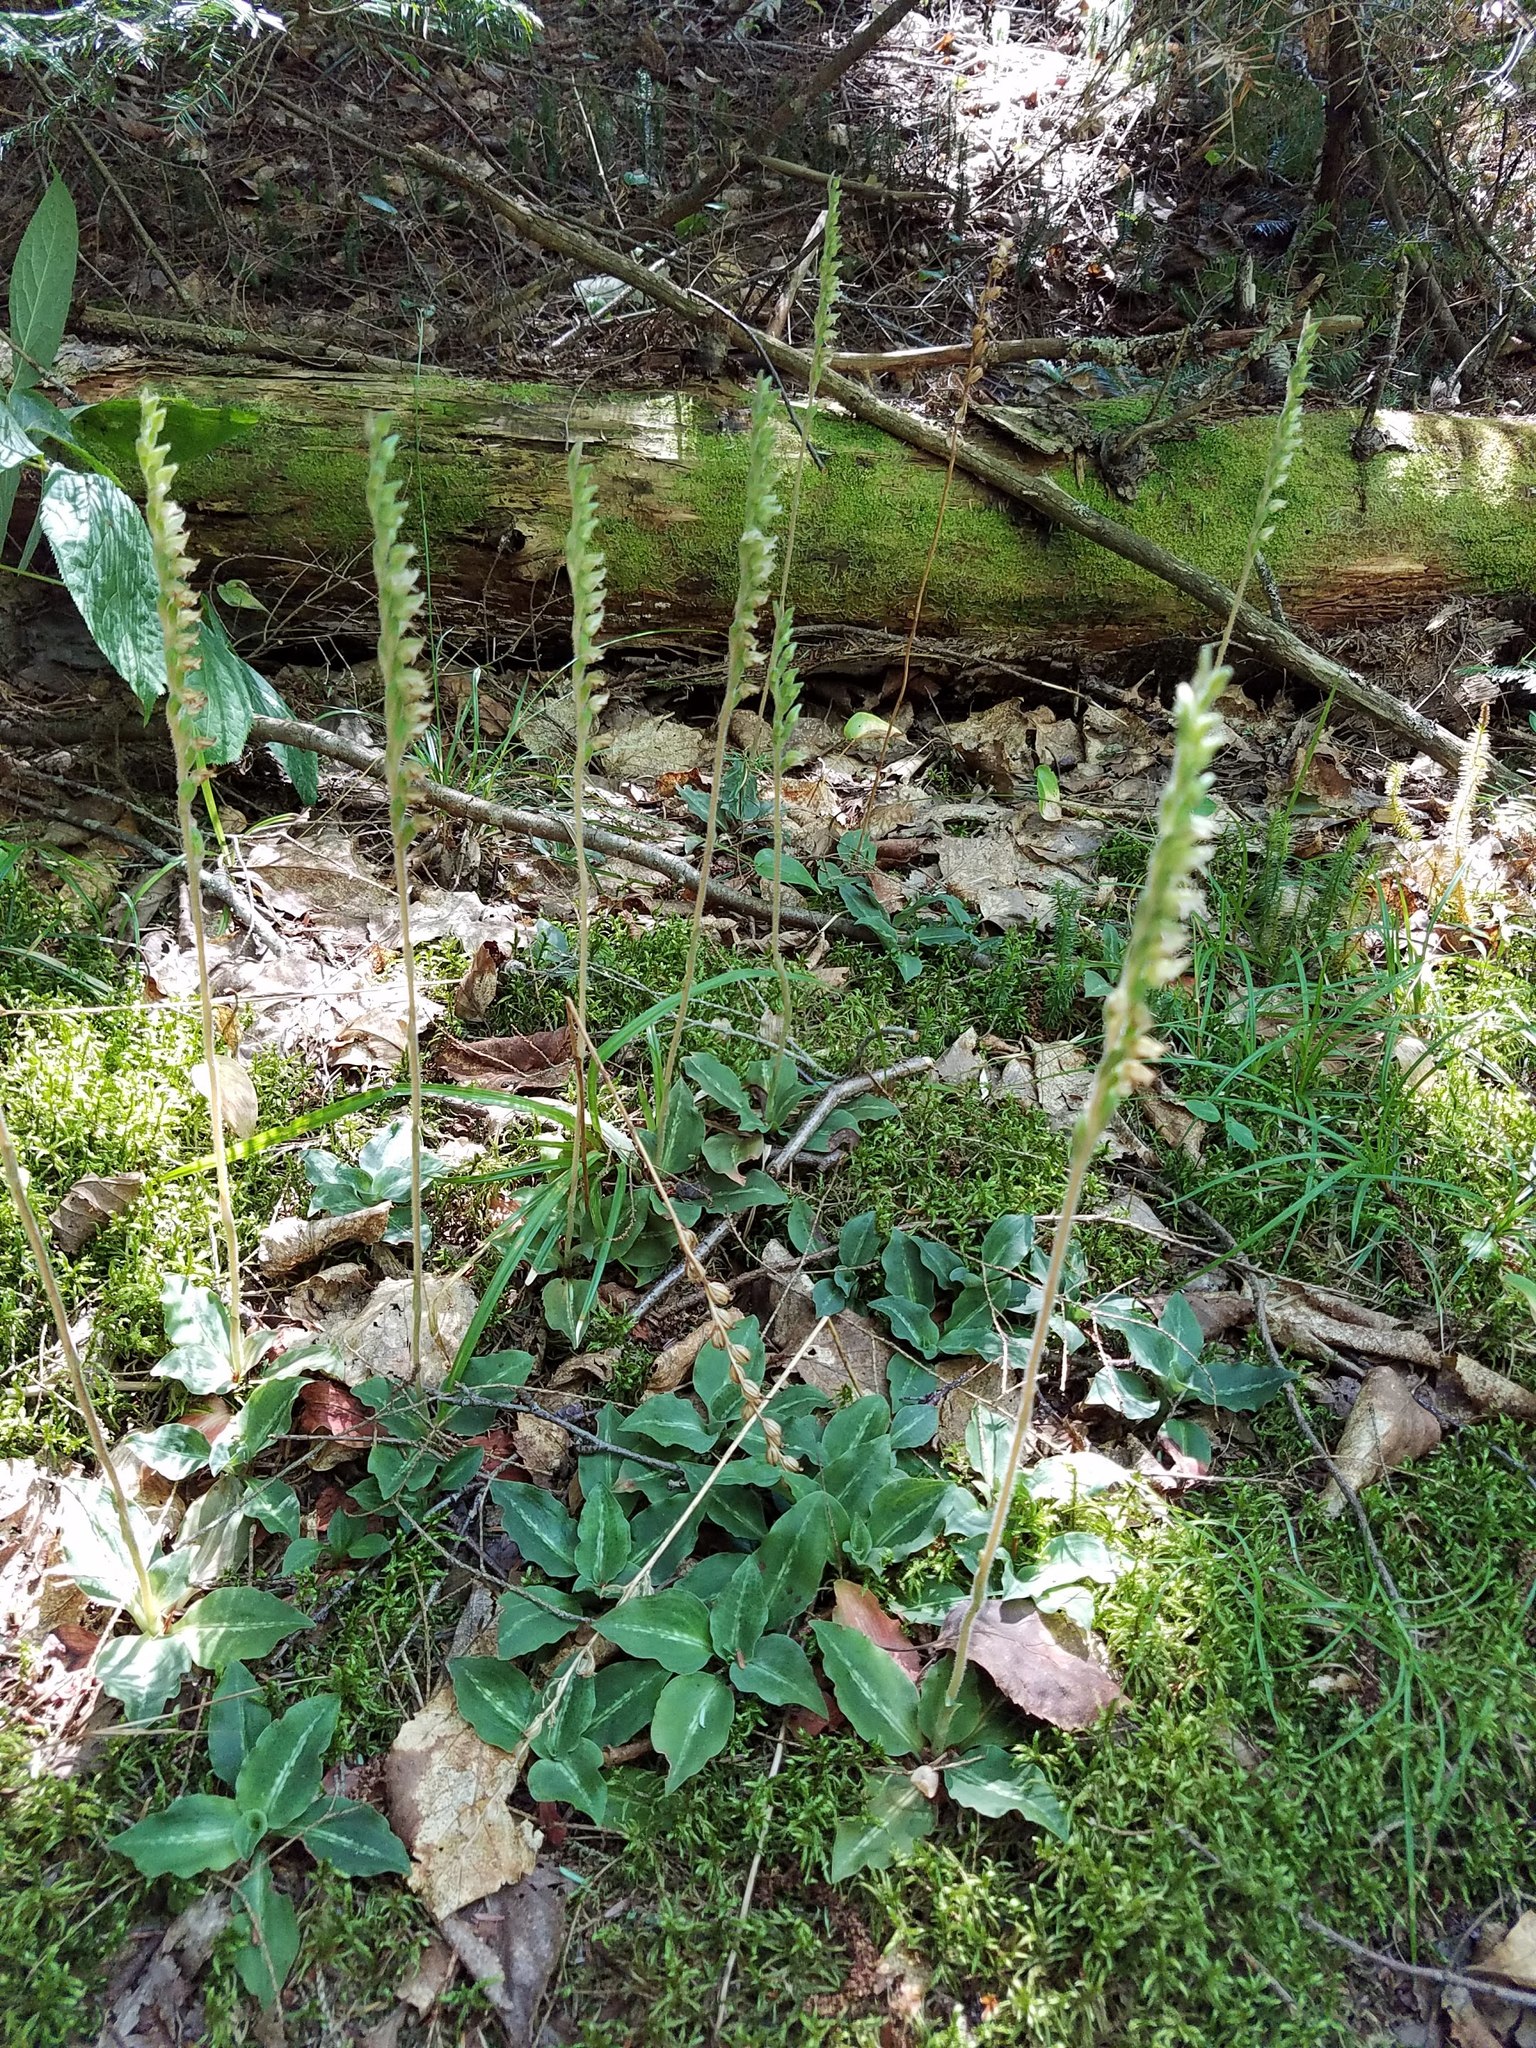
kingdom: Plantae
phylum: Tracheophyta
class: Liliopsida
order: Asparagales
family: Orchidaceae
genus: Goodyera
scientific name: Goodyera oblongifolia
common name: Giant rattlesnake-plantain
